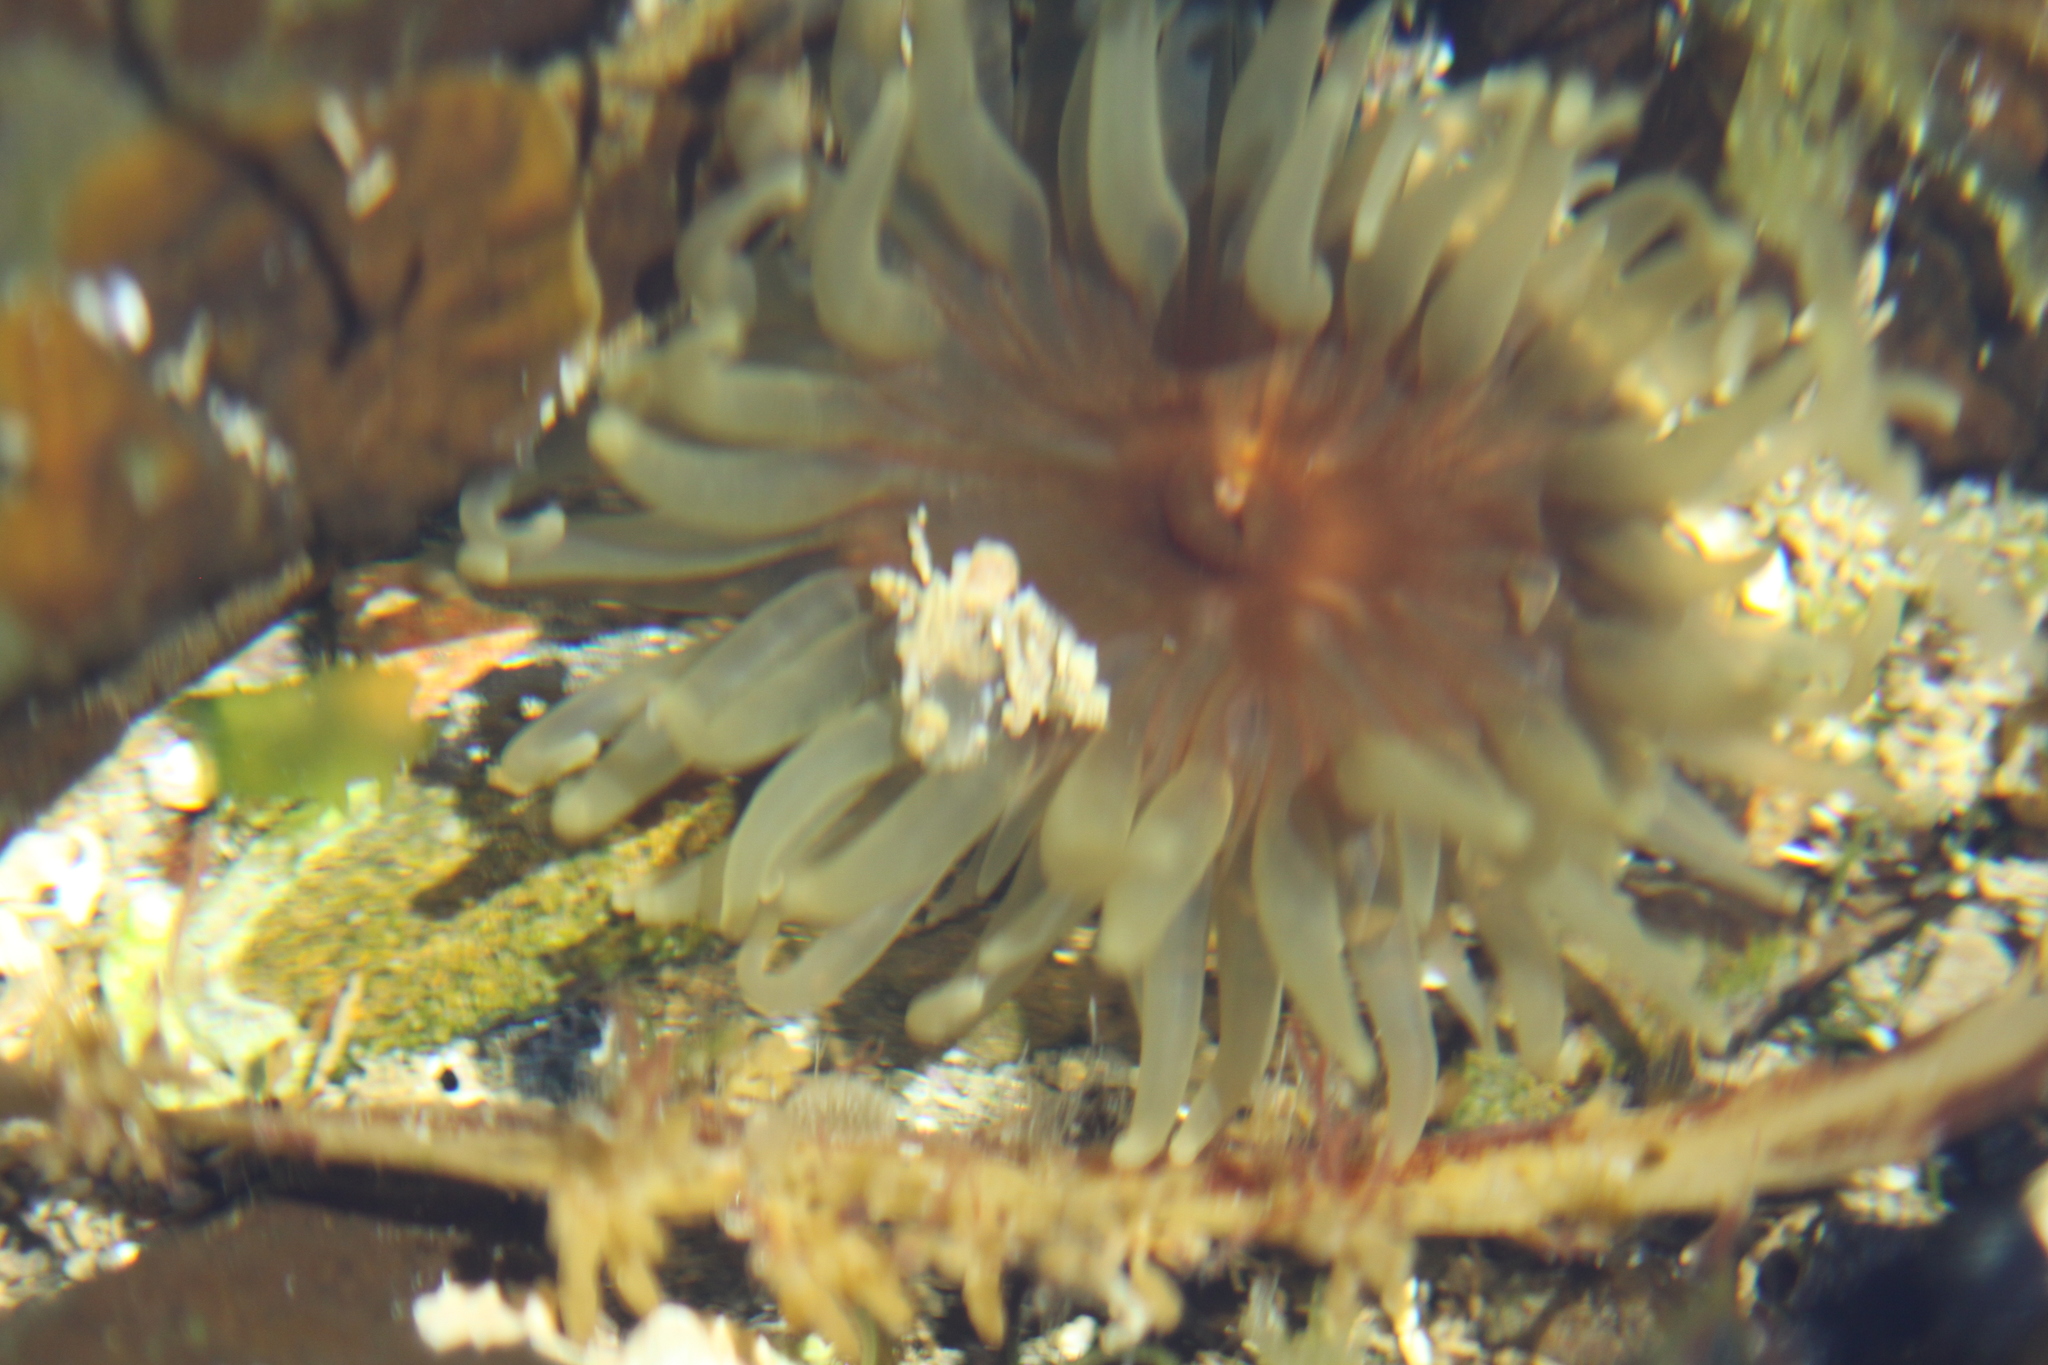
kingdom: Animalia
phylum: Cnidaria
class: Anthozoa
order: Actiniaria
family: Actiniidae
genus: Isactinia
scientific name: Isactinia olivacea
